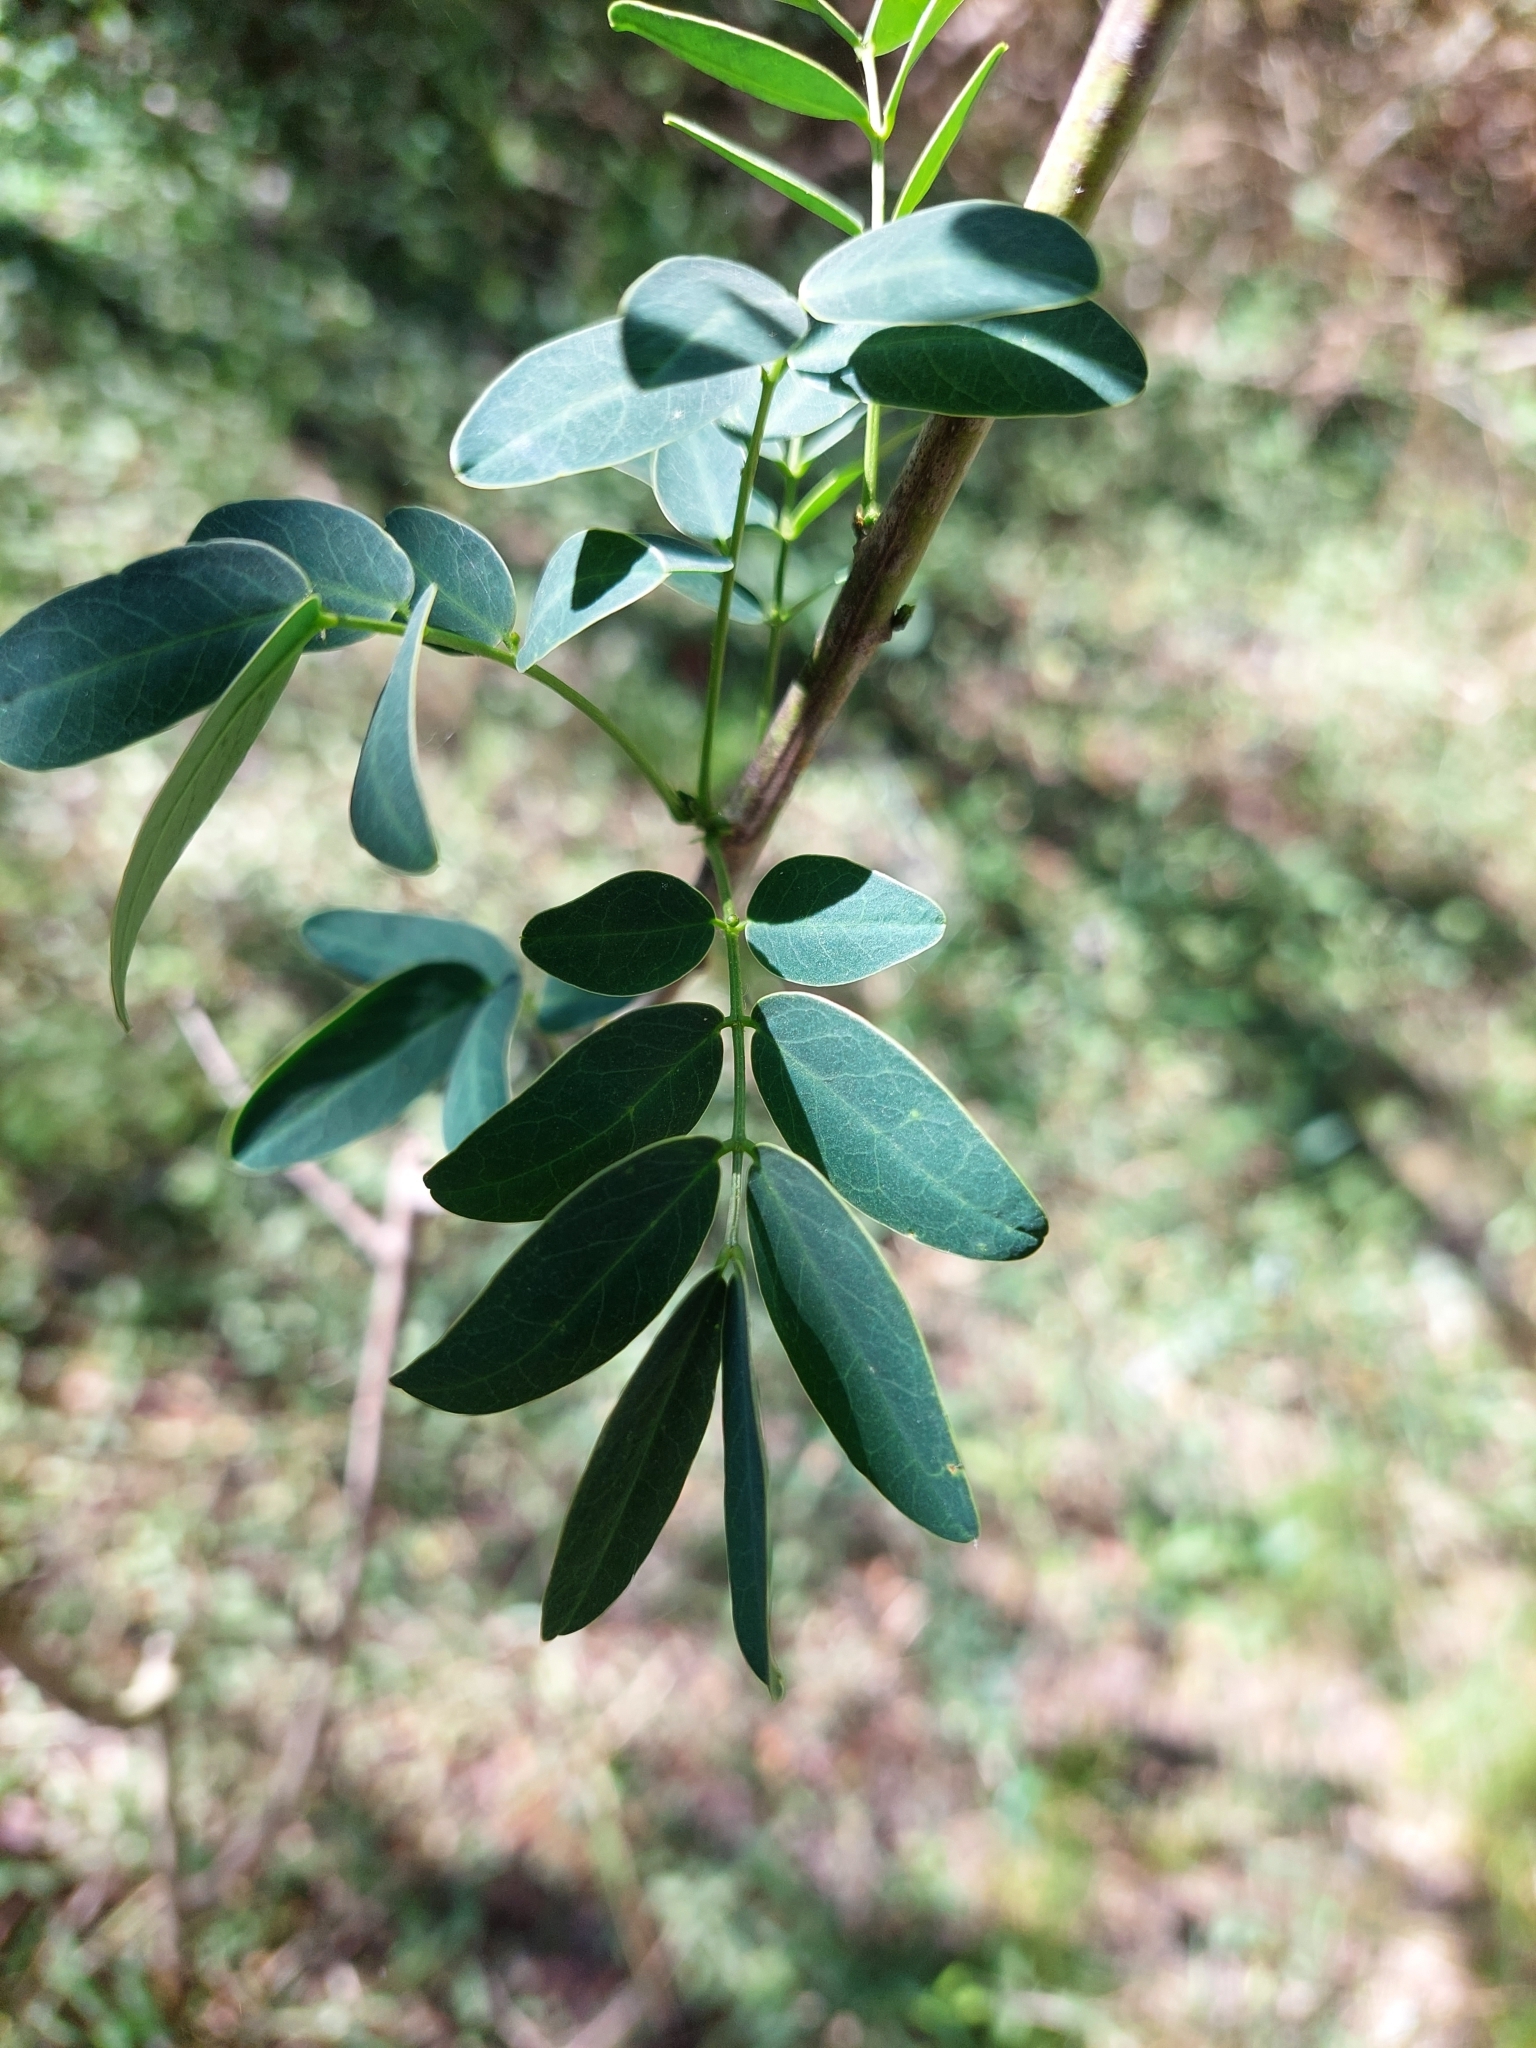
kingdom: Plantae
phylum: Tracheophyta
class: Magnoliopsida
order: Fabales
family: Fabaceae
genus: Senna
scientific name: Senna pendula
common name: Easter cassia
